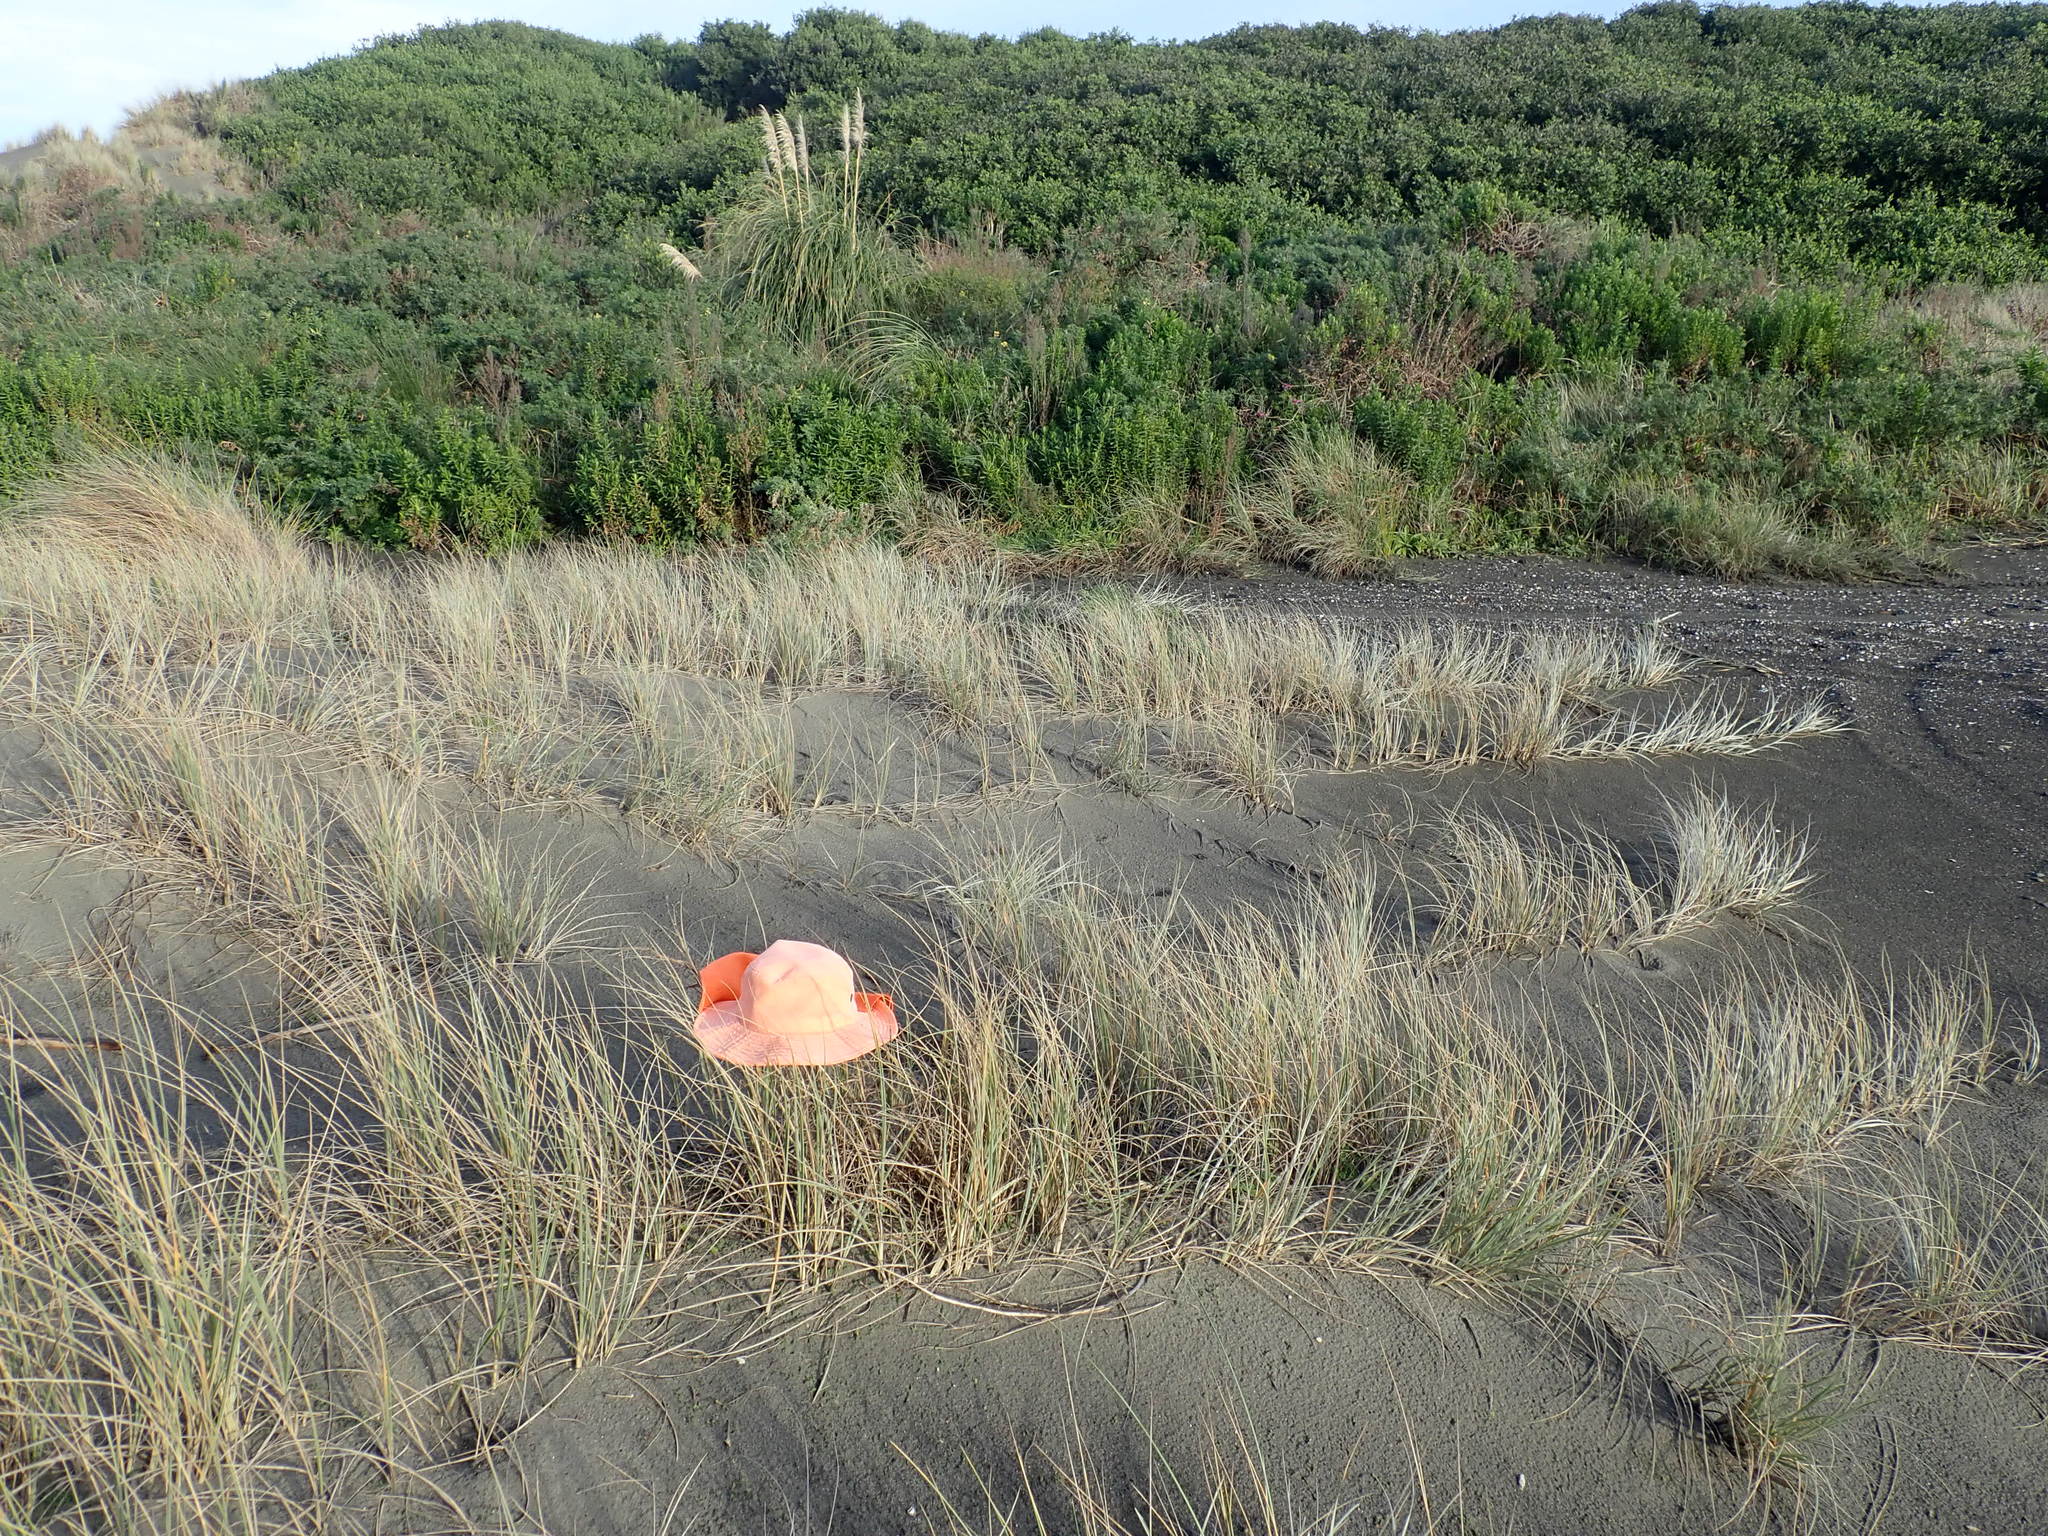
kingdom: Animalia
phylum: Arthropoda
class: Arachnida
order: Araneae
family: Theridiidae
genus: Latrodectus
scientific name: Latrodectus katipo
